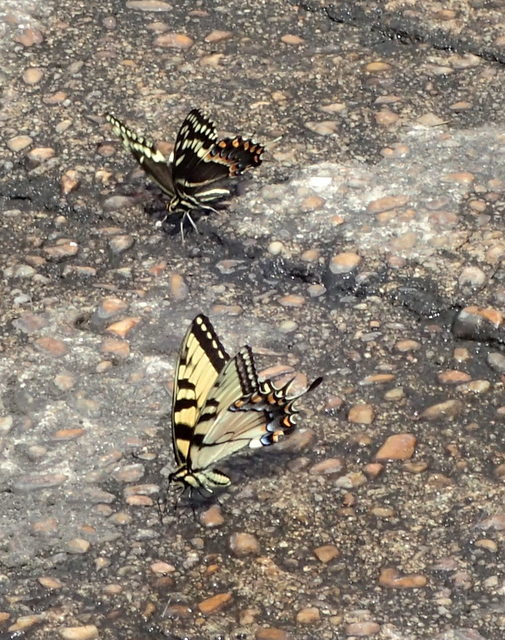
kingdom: Animalia
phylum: Arthropoda
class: Insecta
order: Lepidoptera
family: Papilionidae
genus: Papilio
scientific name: Papilio glaucus
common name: Tiger swallowtail
